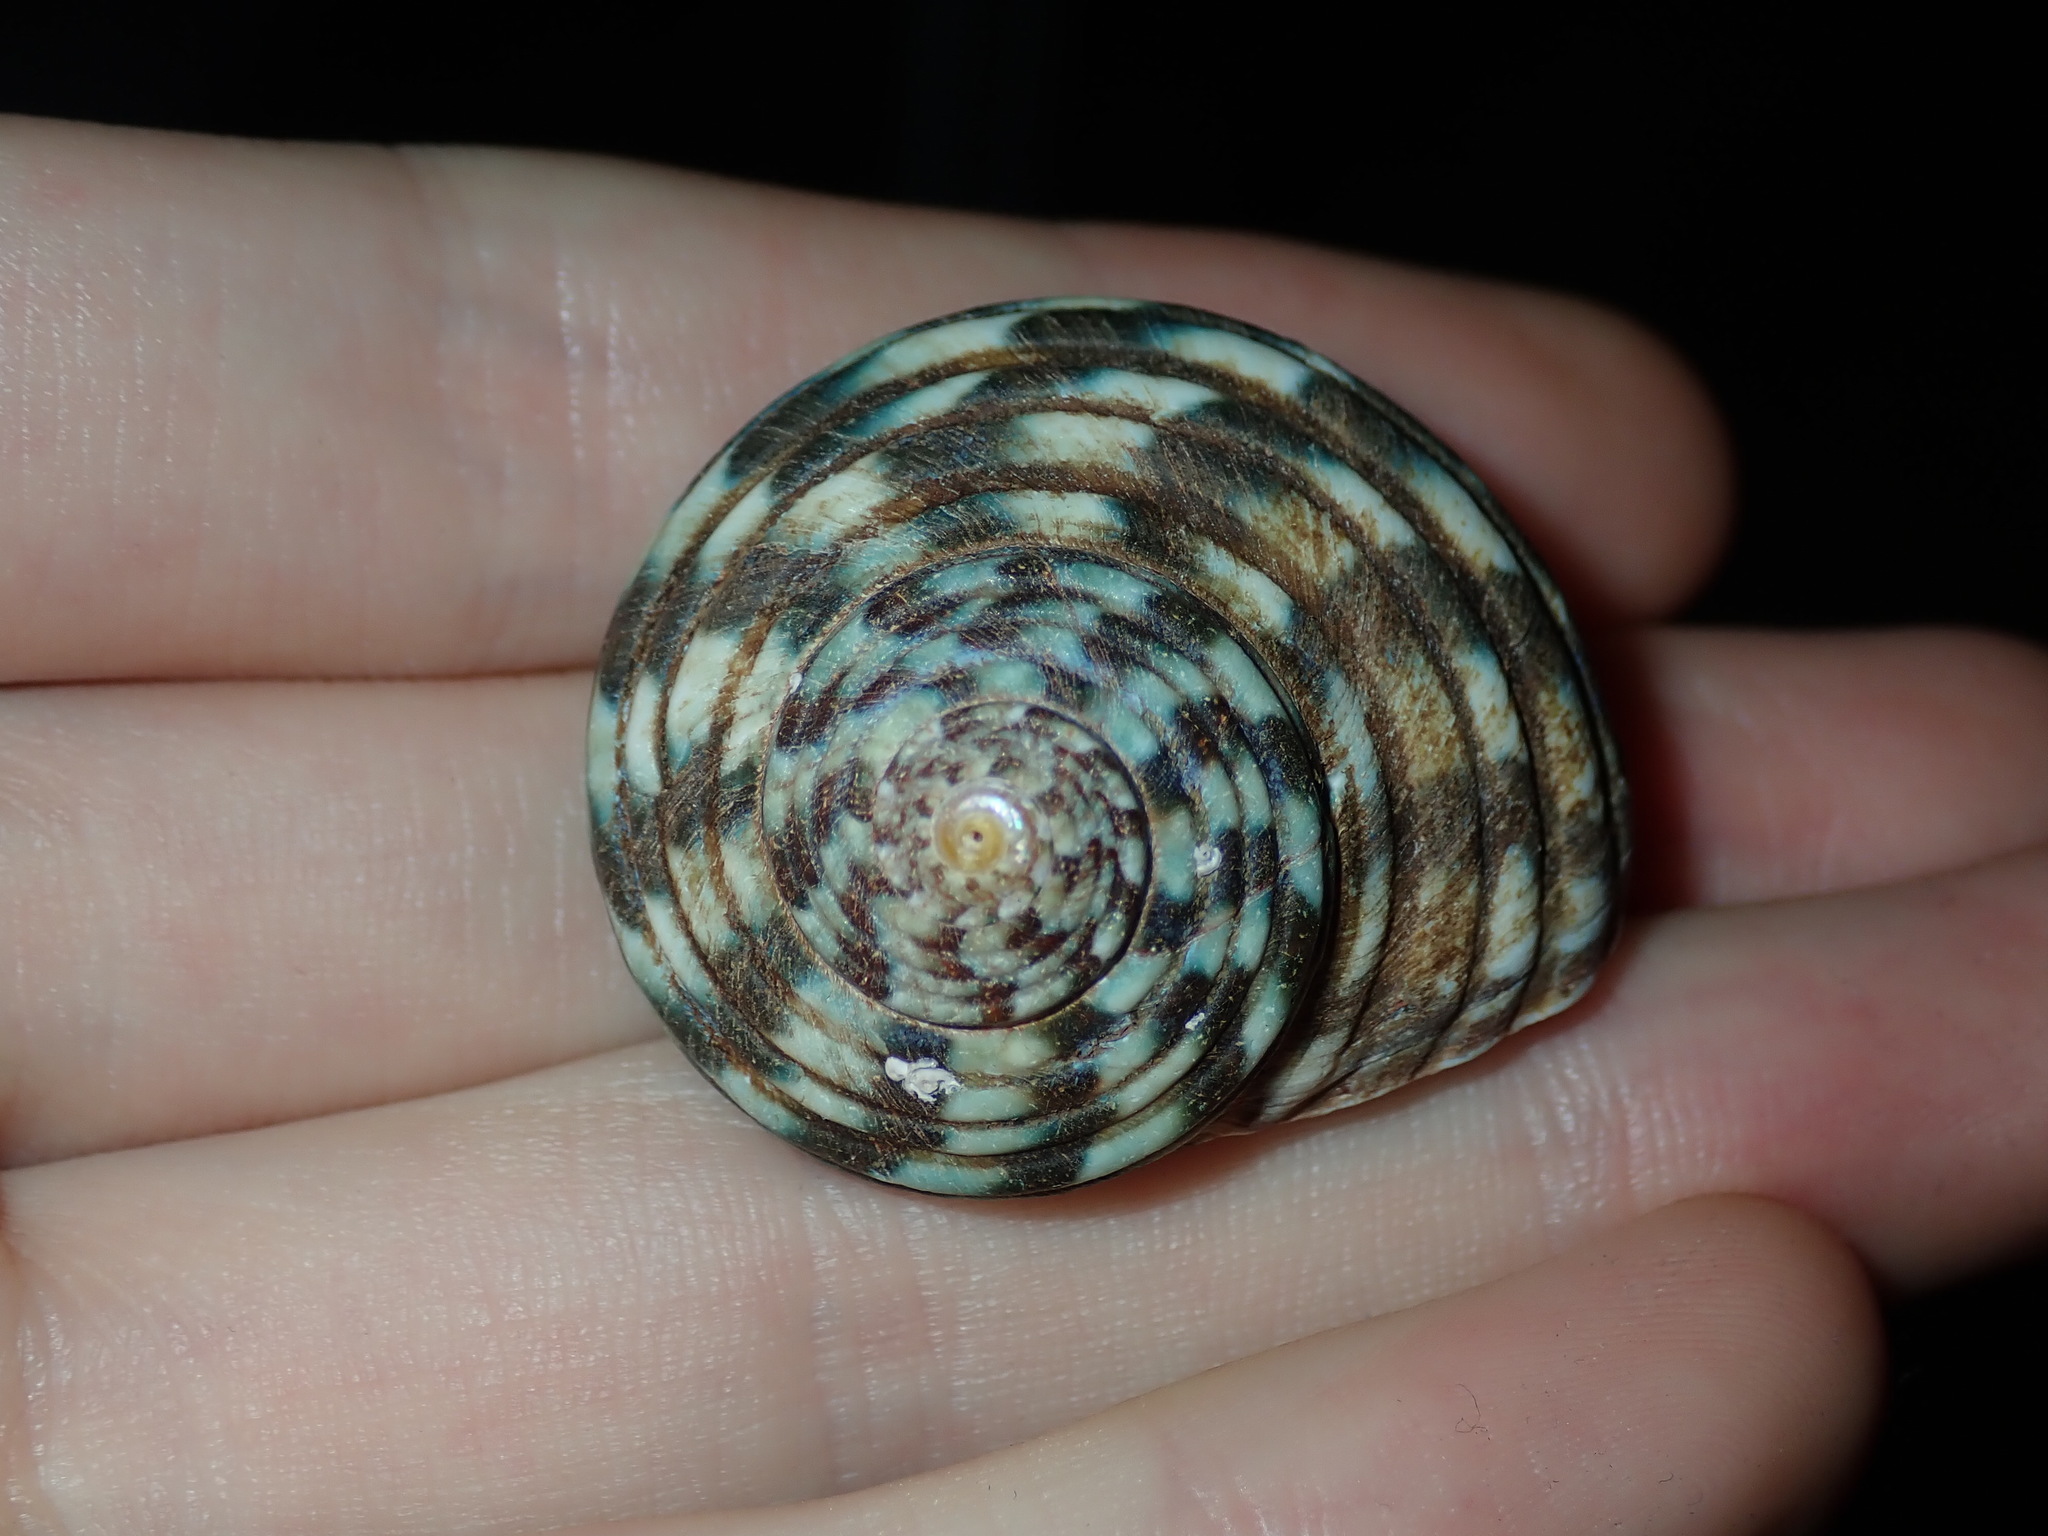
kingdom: Animalia
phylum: Mollusca
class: Gastropoda
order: Trochida
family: Turbinidae
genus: Lunella
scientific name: Lunella undulata
